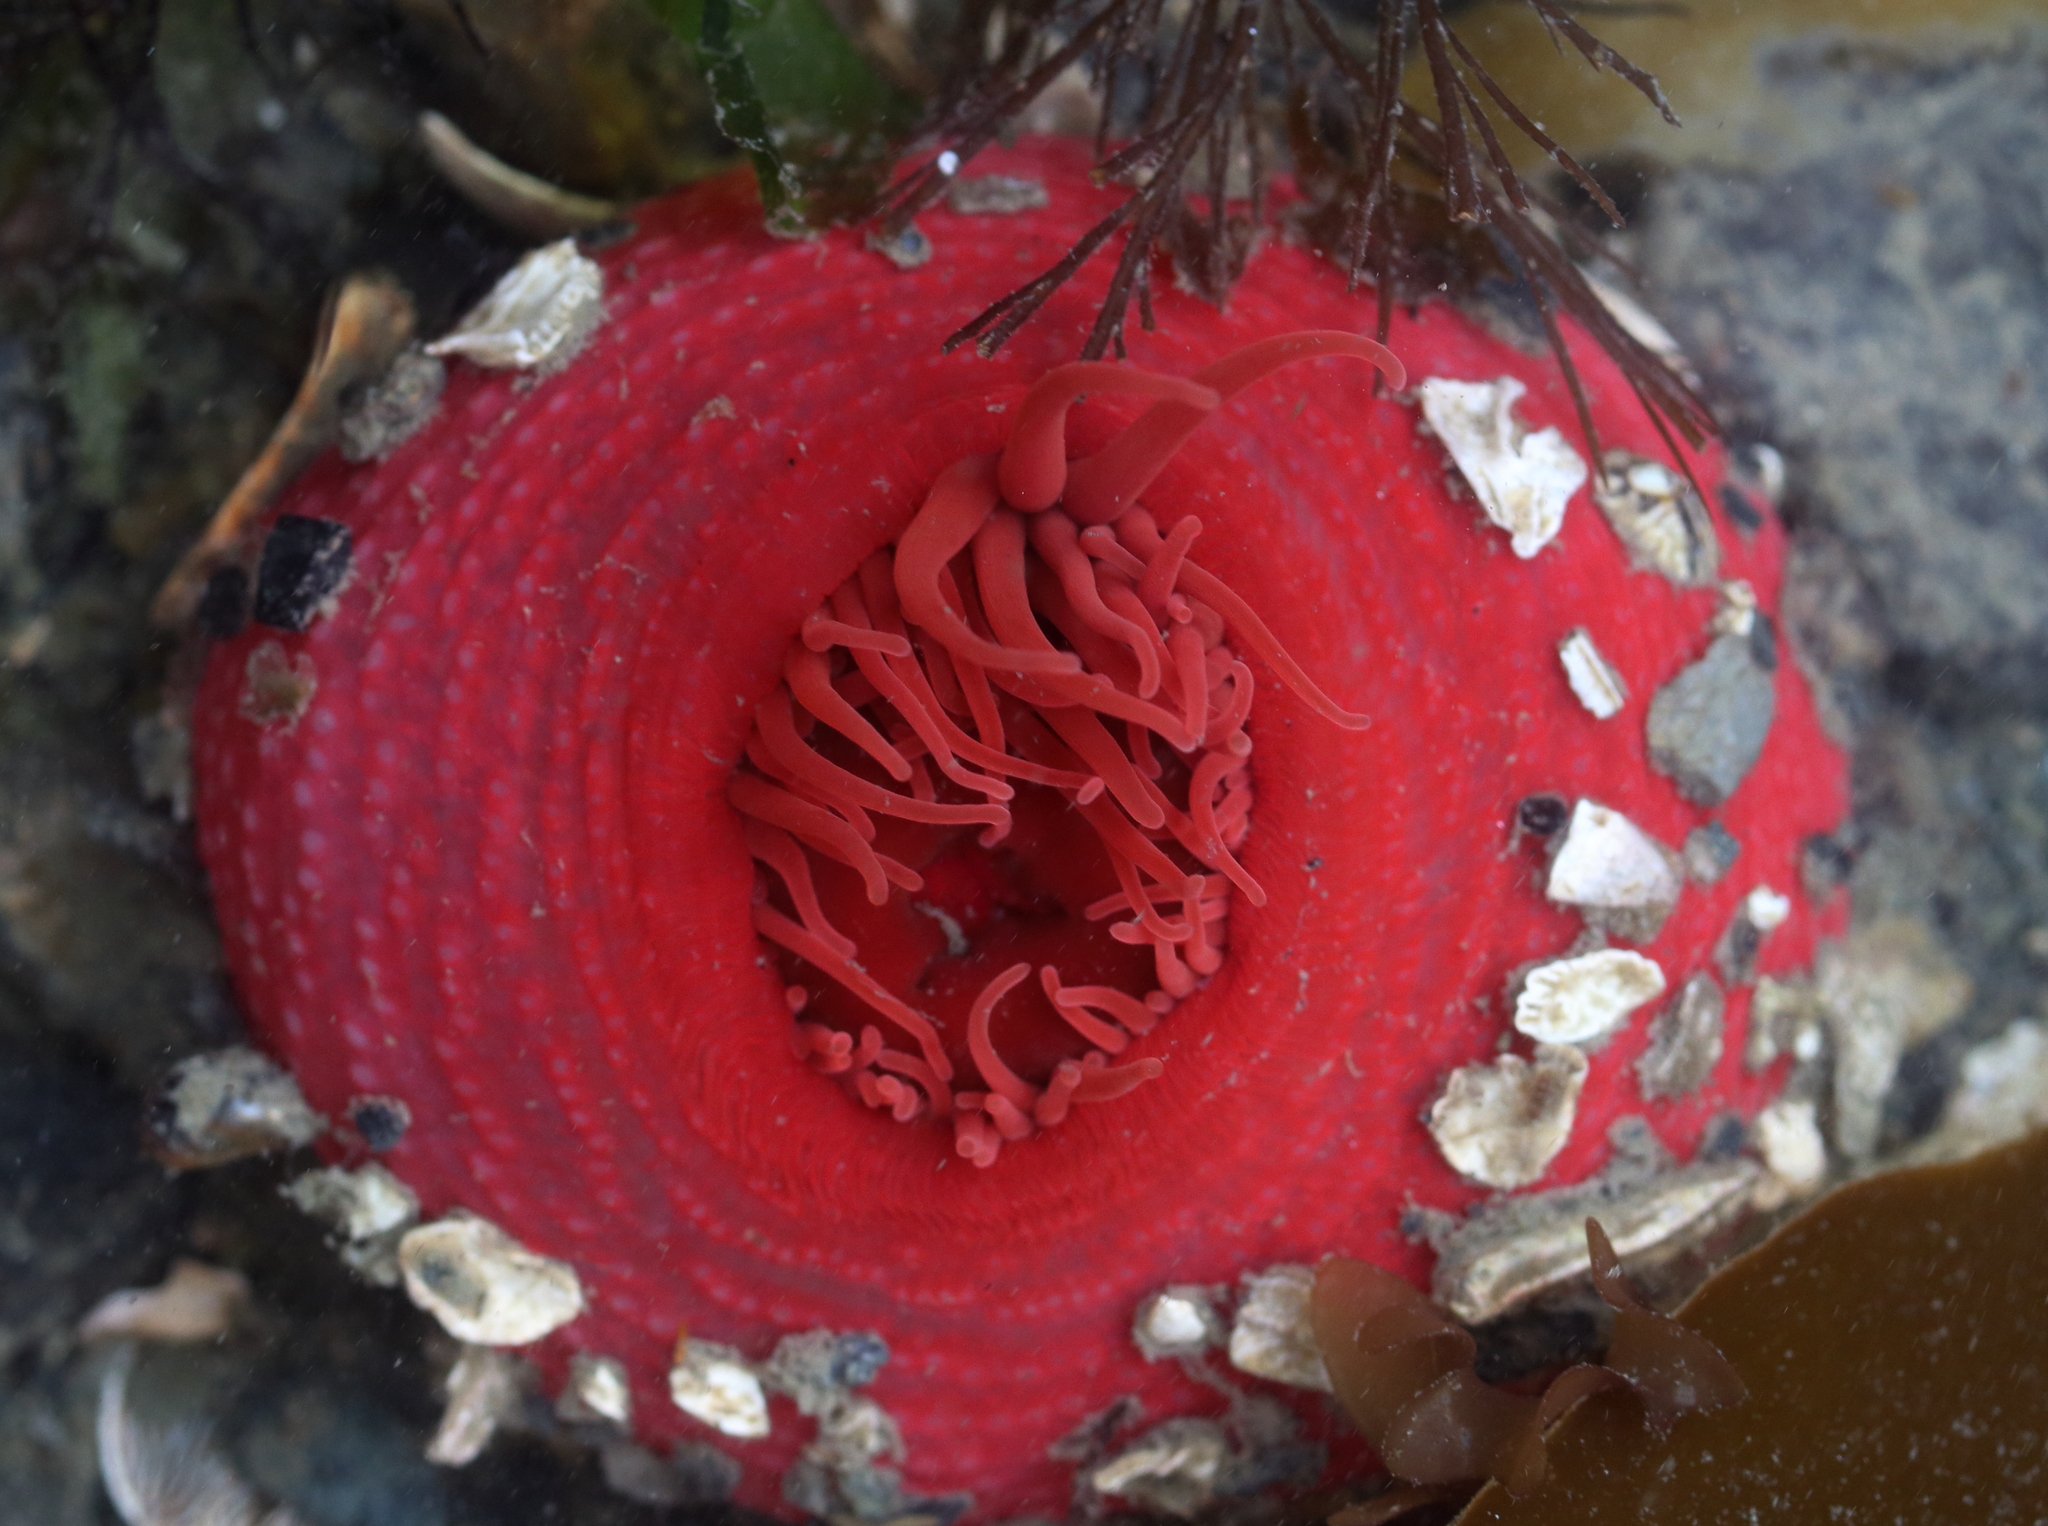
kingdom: Animalia
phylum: Cnidaria
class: Anthozoa
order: Actiniaria
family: Actiniidae
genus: Aulactinia
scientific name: Aulactinia vancouverensis
